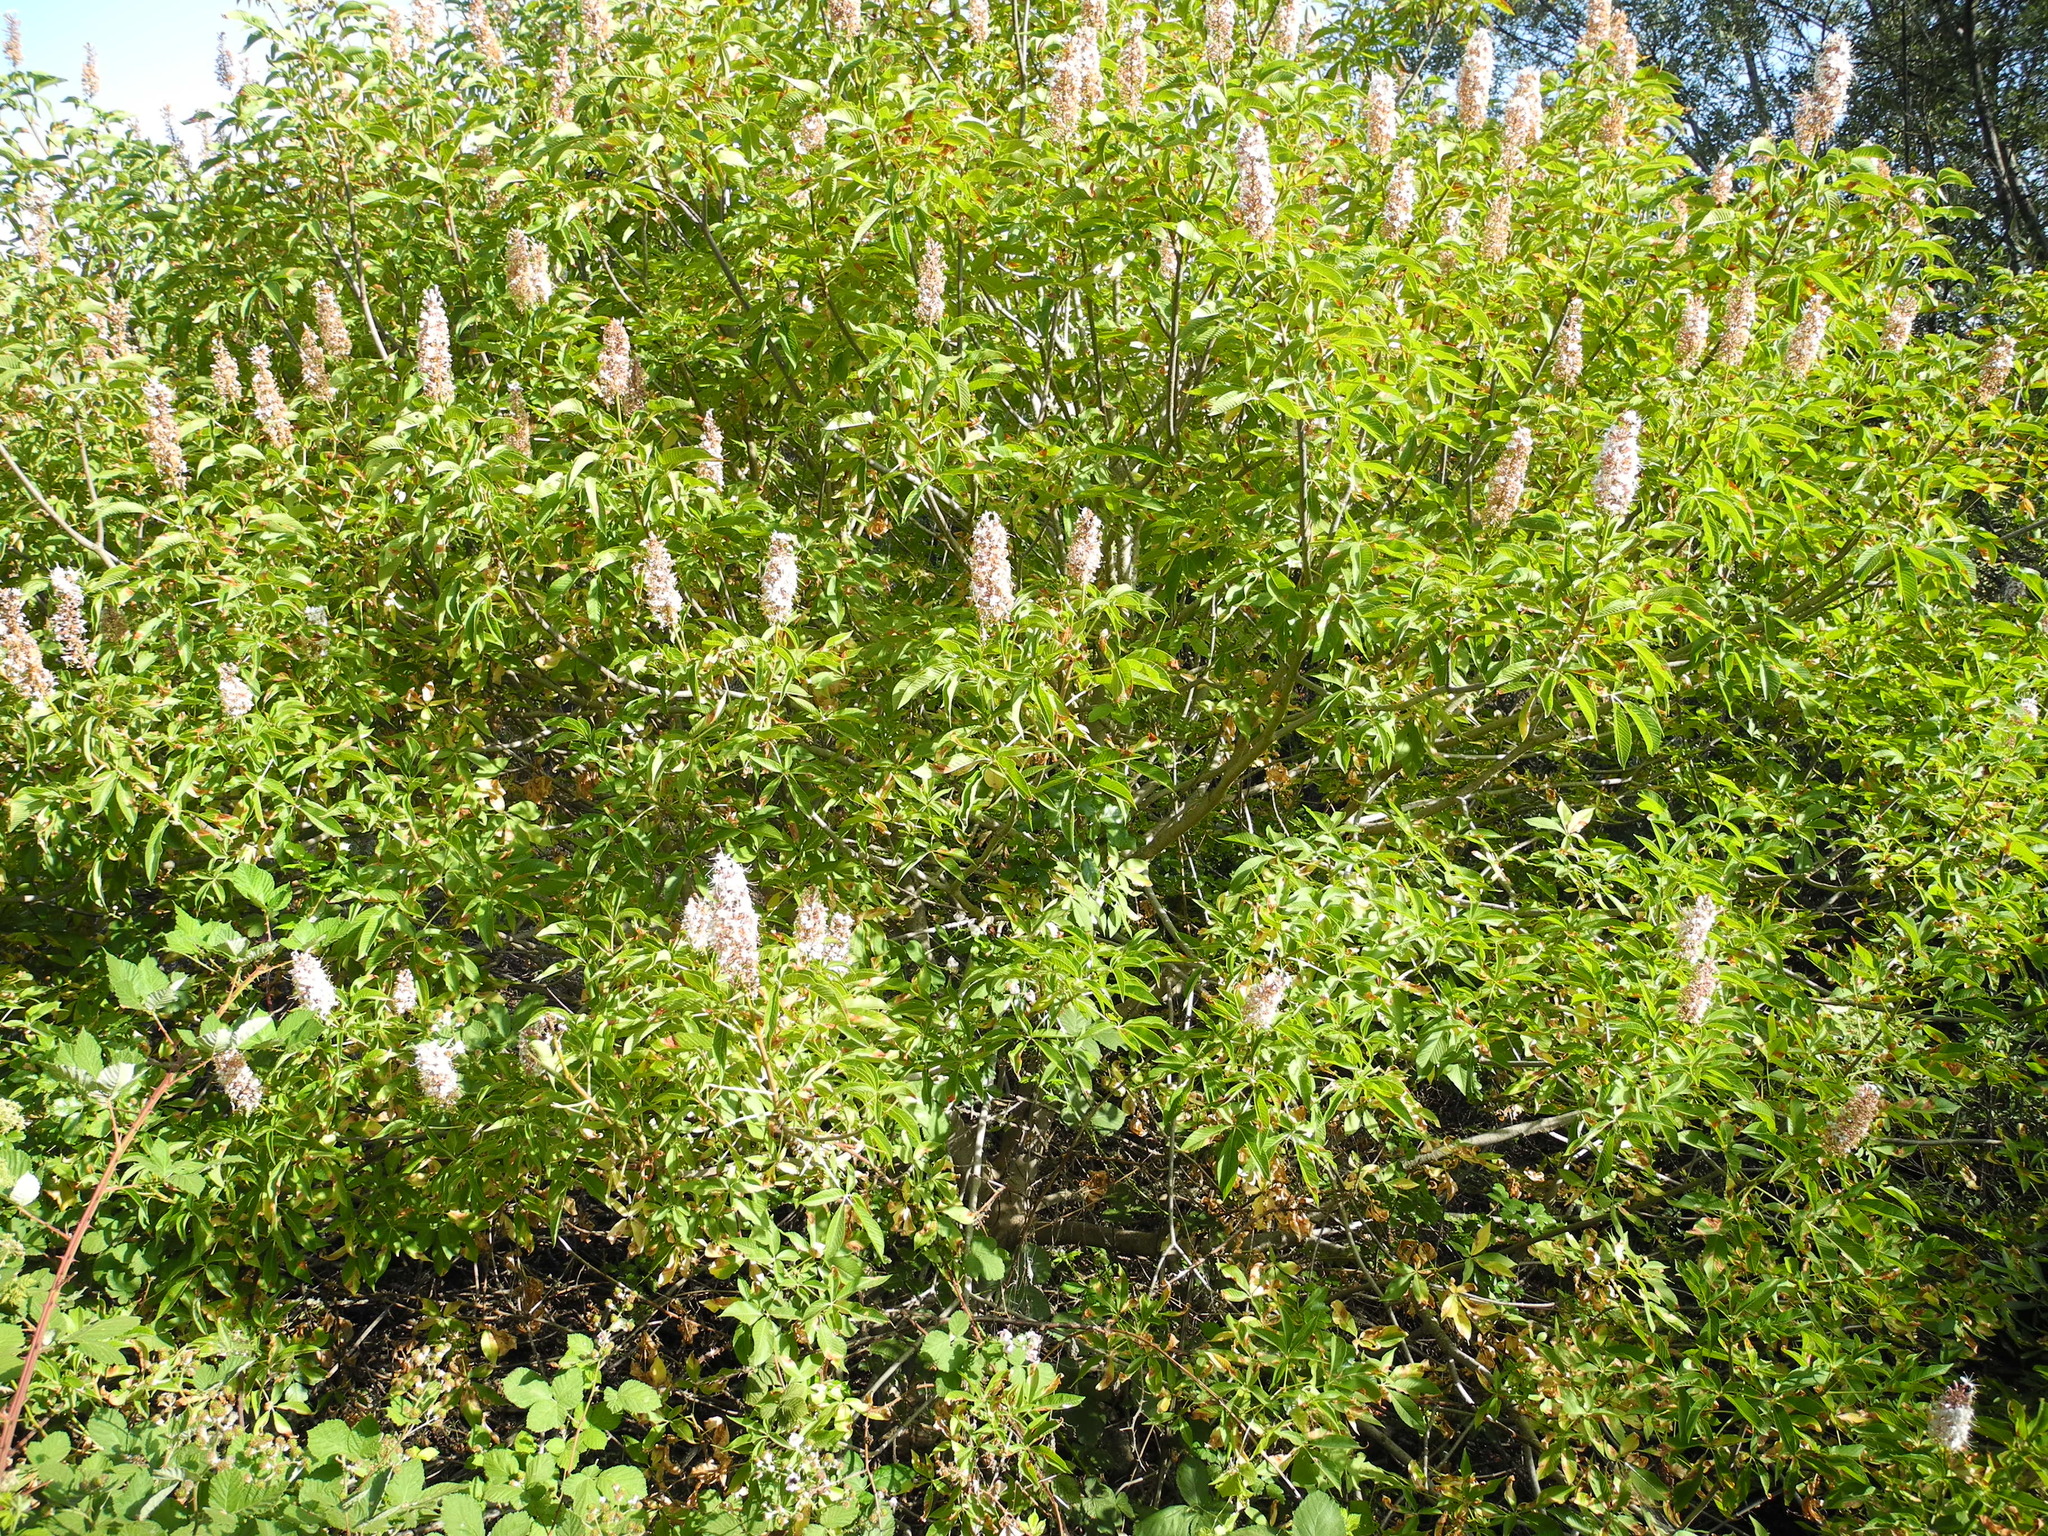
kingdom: Plantae
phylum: Tracheophyta
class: Magnoliopsida
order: Sapindales
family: Sapindaceae
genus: Aesculus
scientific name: Aesculus californica
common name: California buckeye
